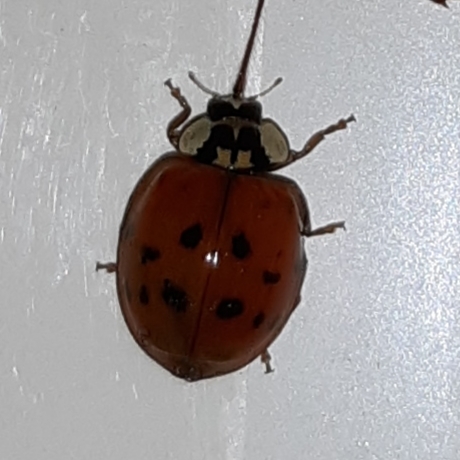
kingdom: Animalia
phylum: Arthropoda
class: Insecta
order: Coleoptera
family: Coccinellidae
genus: Harmonia
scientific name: Harmonia axyridis
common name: Harlequin ladybird
